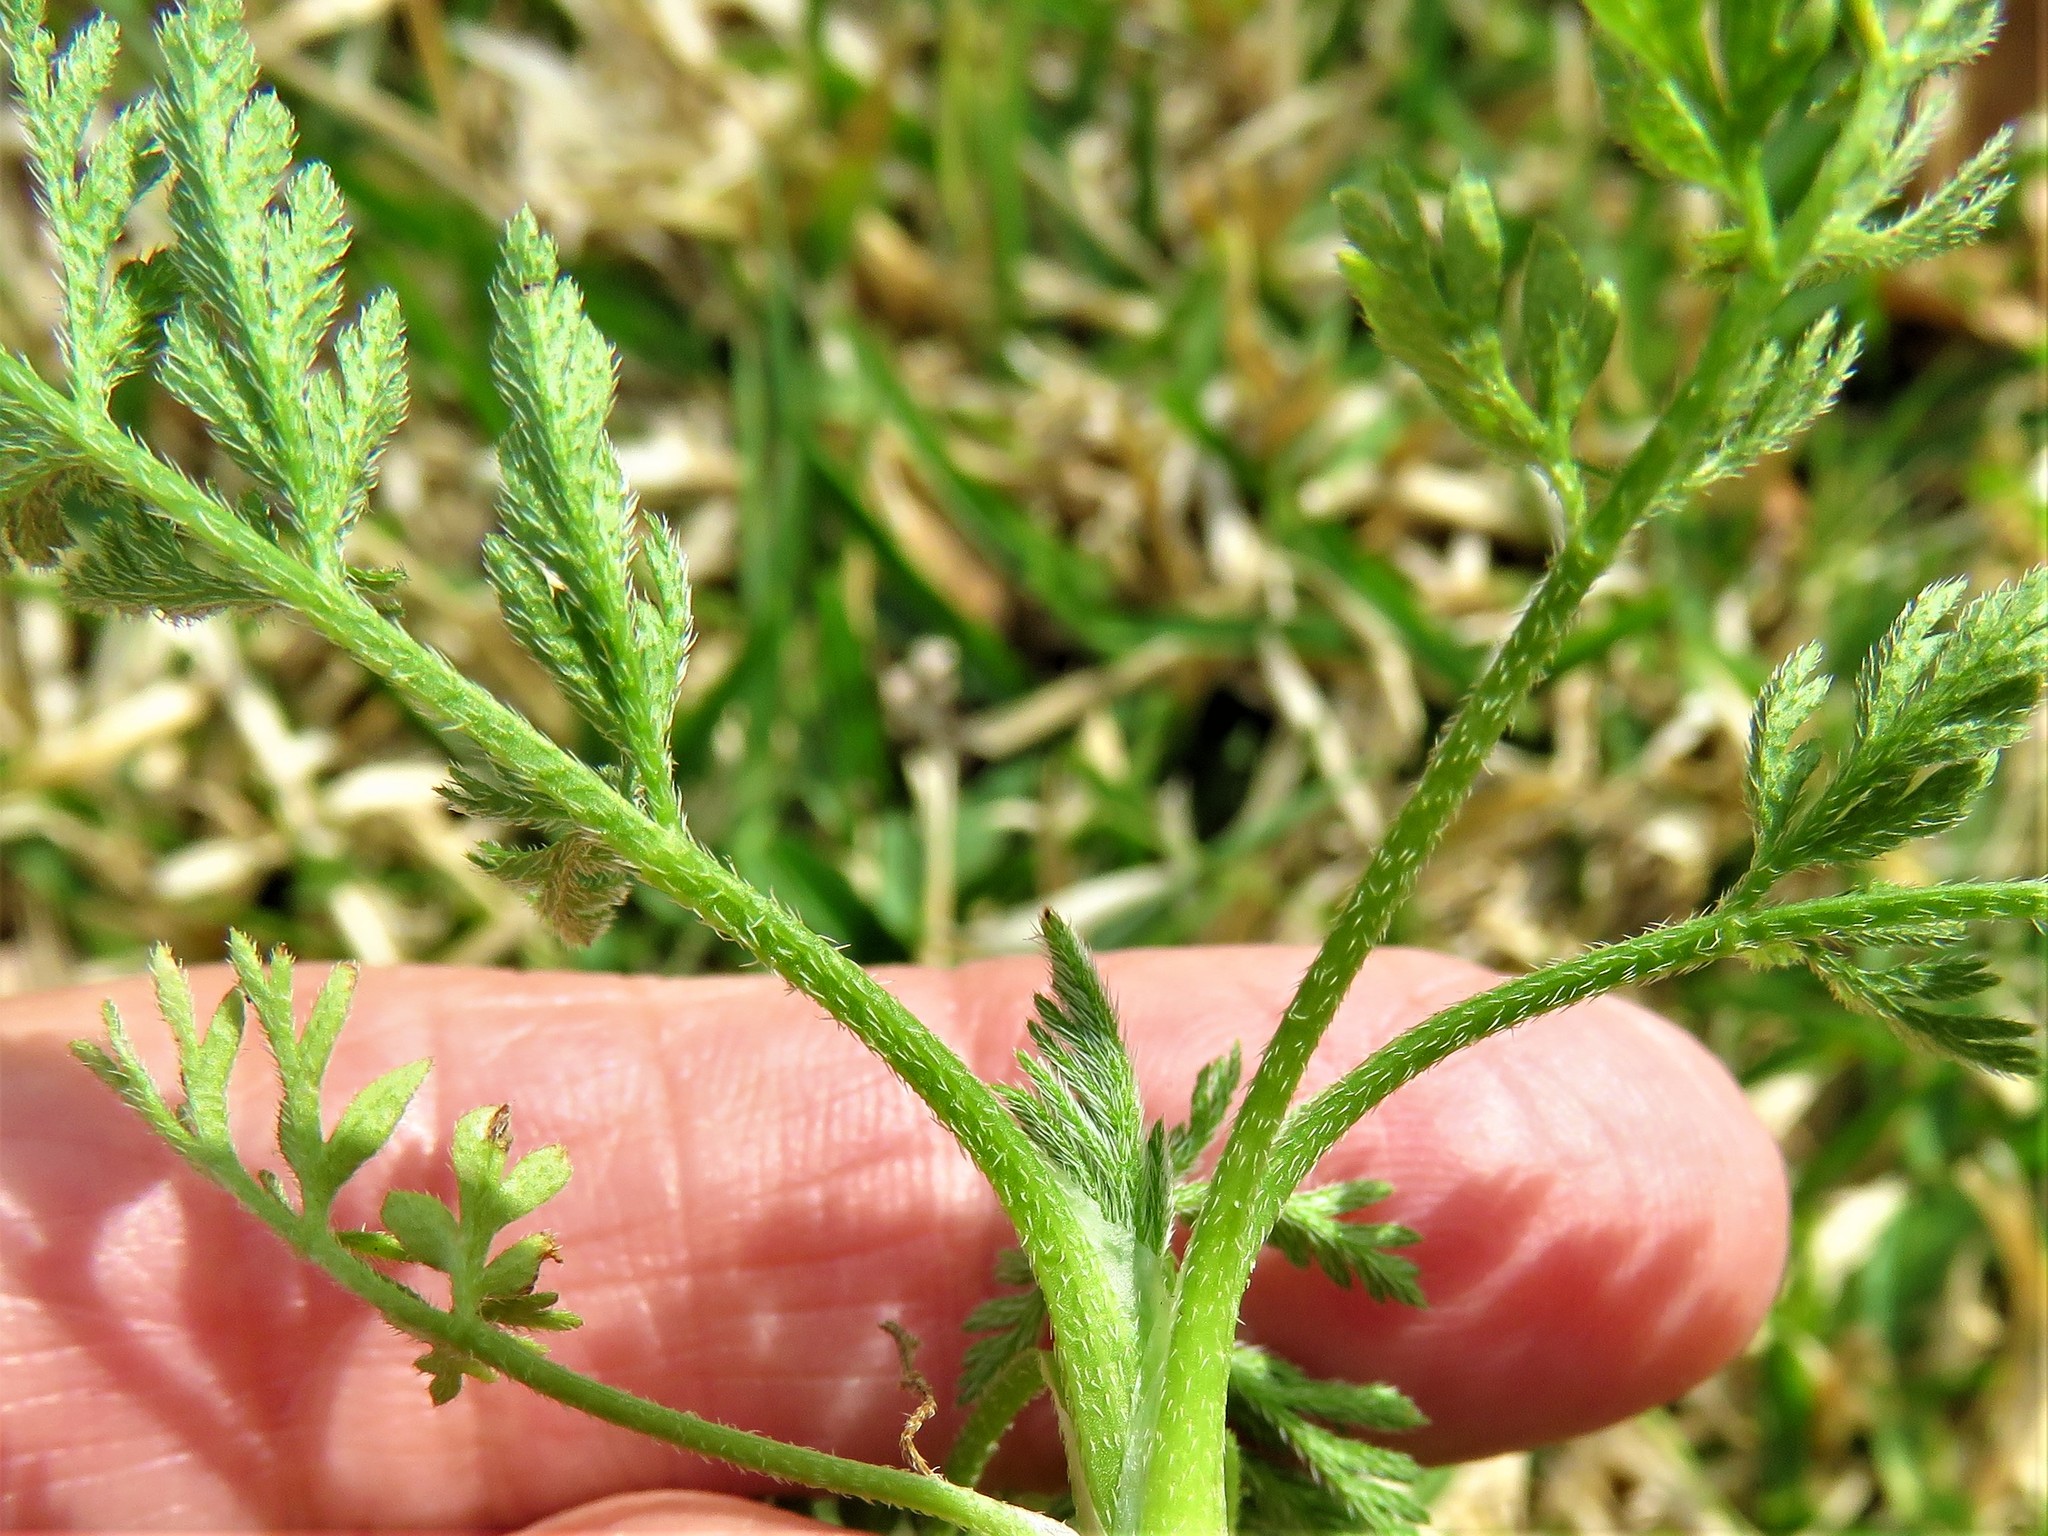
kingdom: Plantae
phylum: Tracheophyta
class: Magnoliopsida
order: Apiales
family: Apiaceae
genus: Torilis
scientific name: Torilis nodosa
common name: Knotted hedge-parsley
